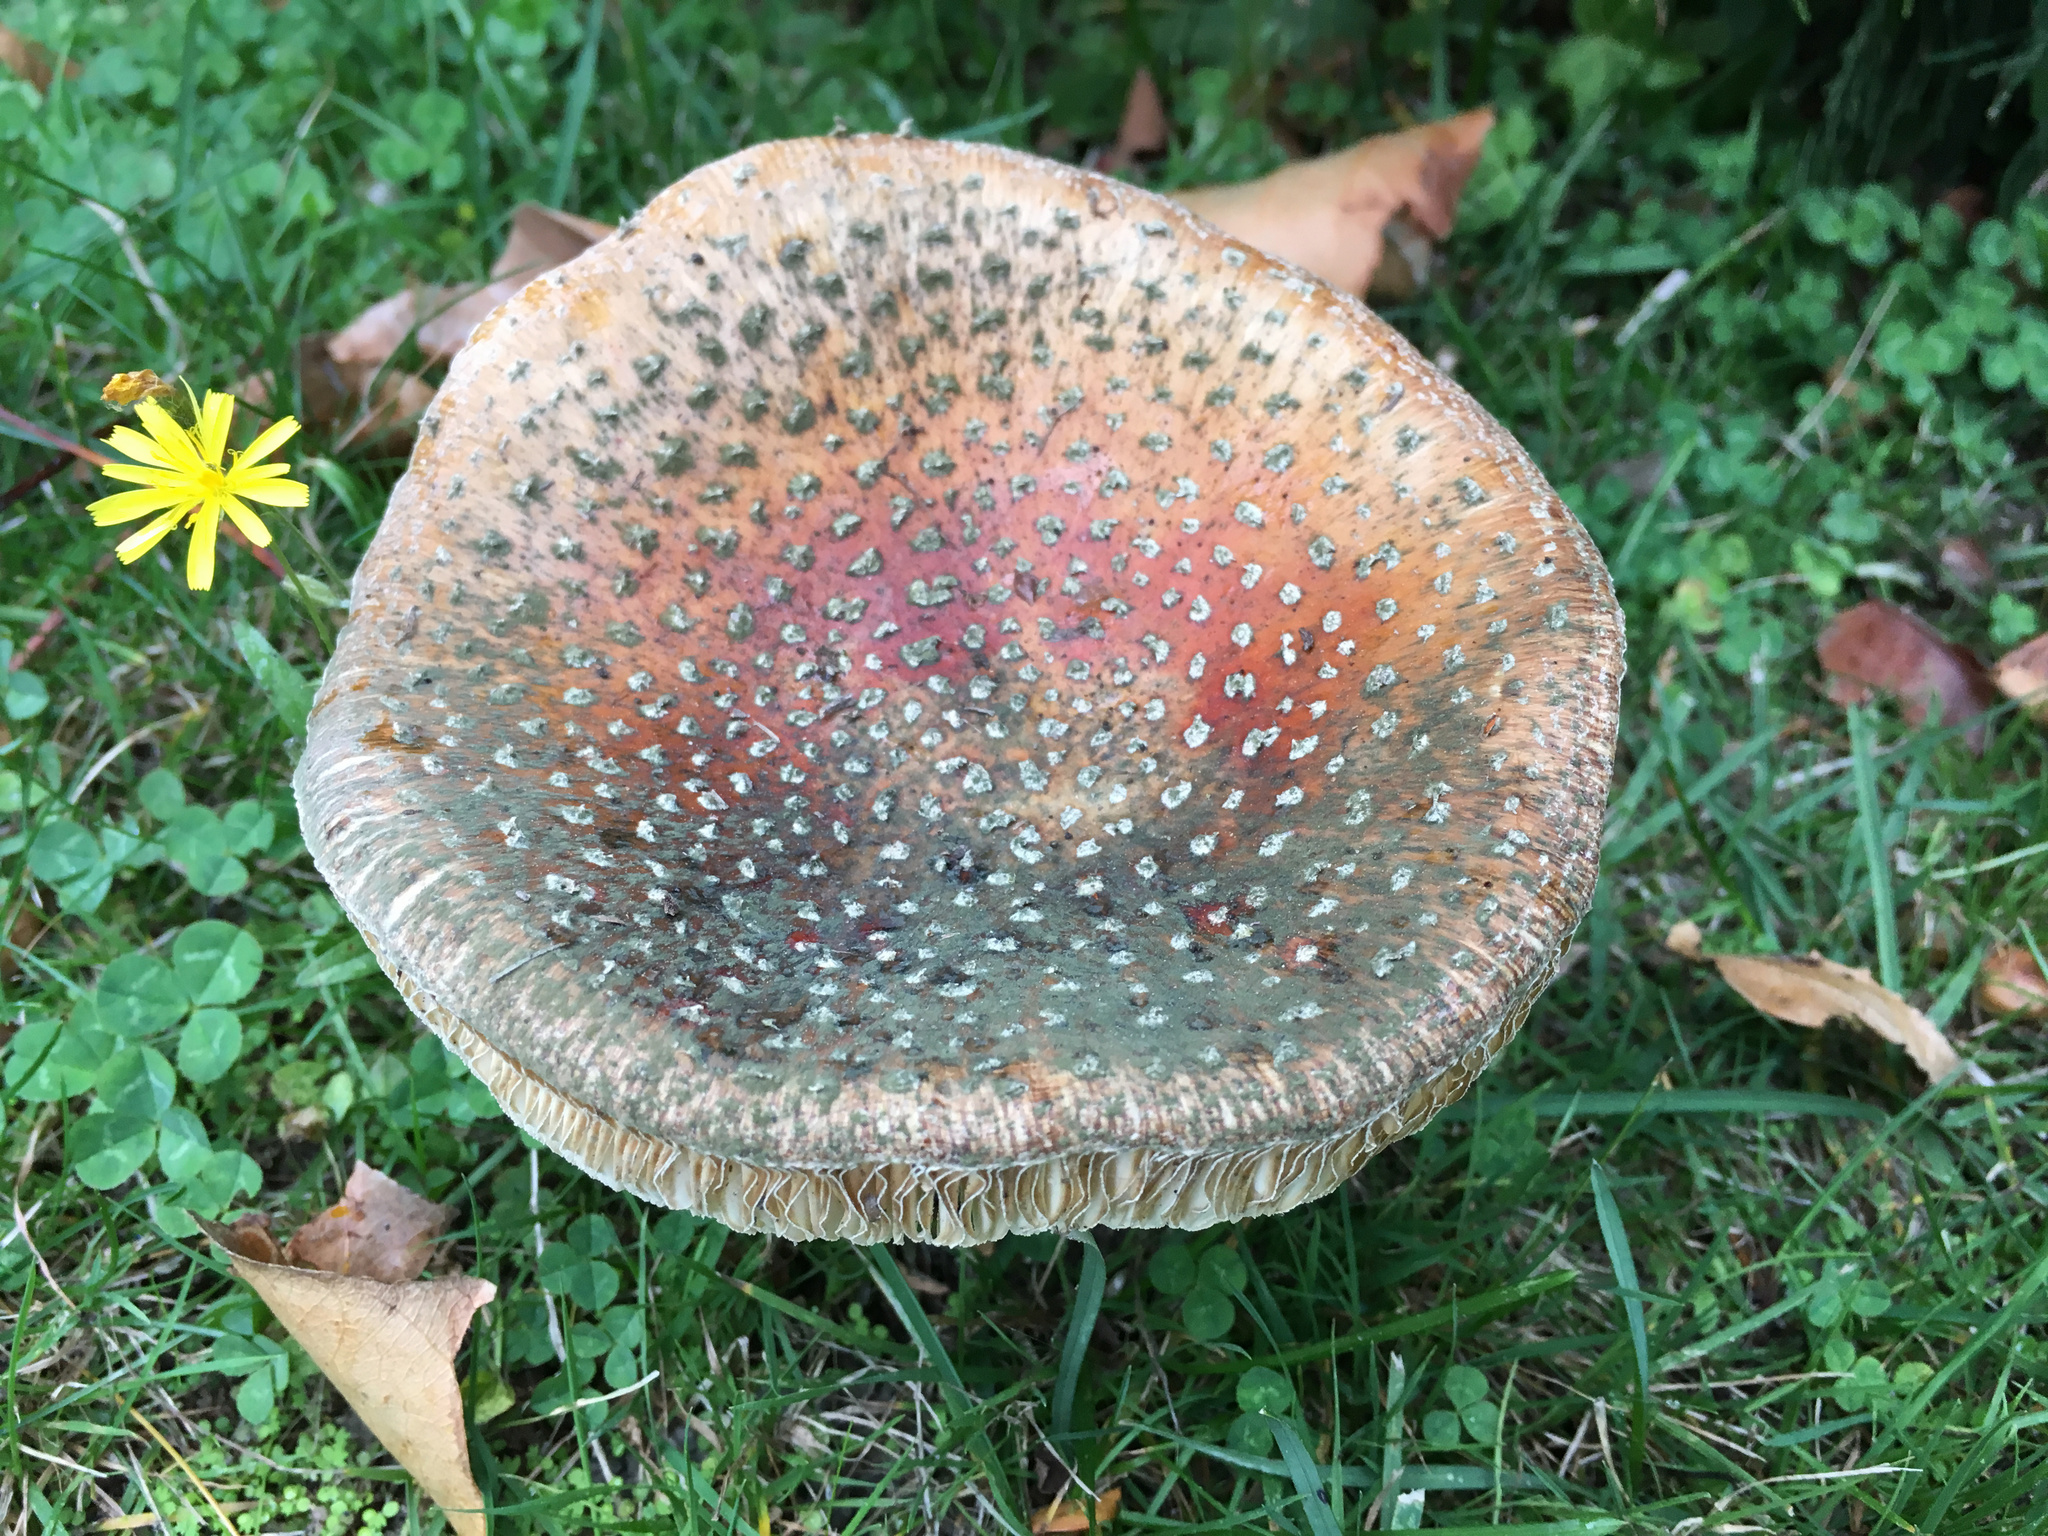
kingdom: Fungi
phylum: Basidiomycota
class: Agaricomycetes
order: Agaricales
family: Amanitaceae
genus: Amanita
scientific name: Amanita muscaria
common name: Fly agaric
